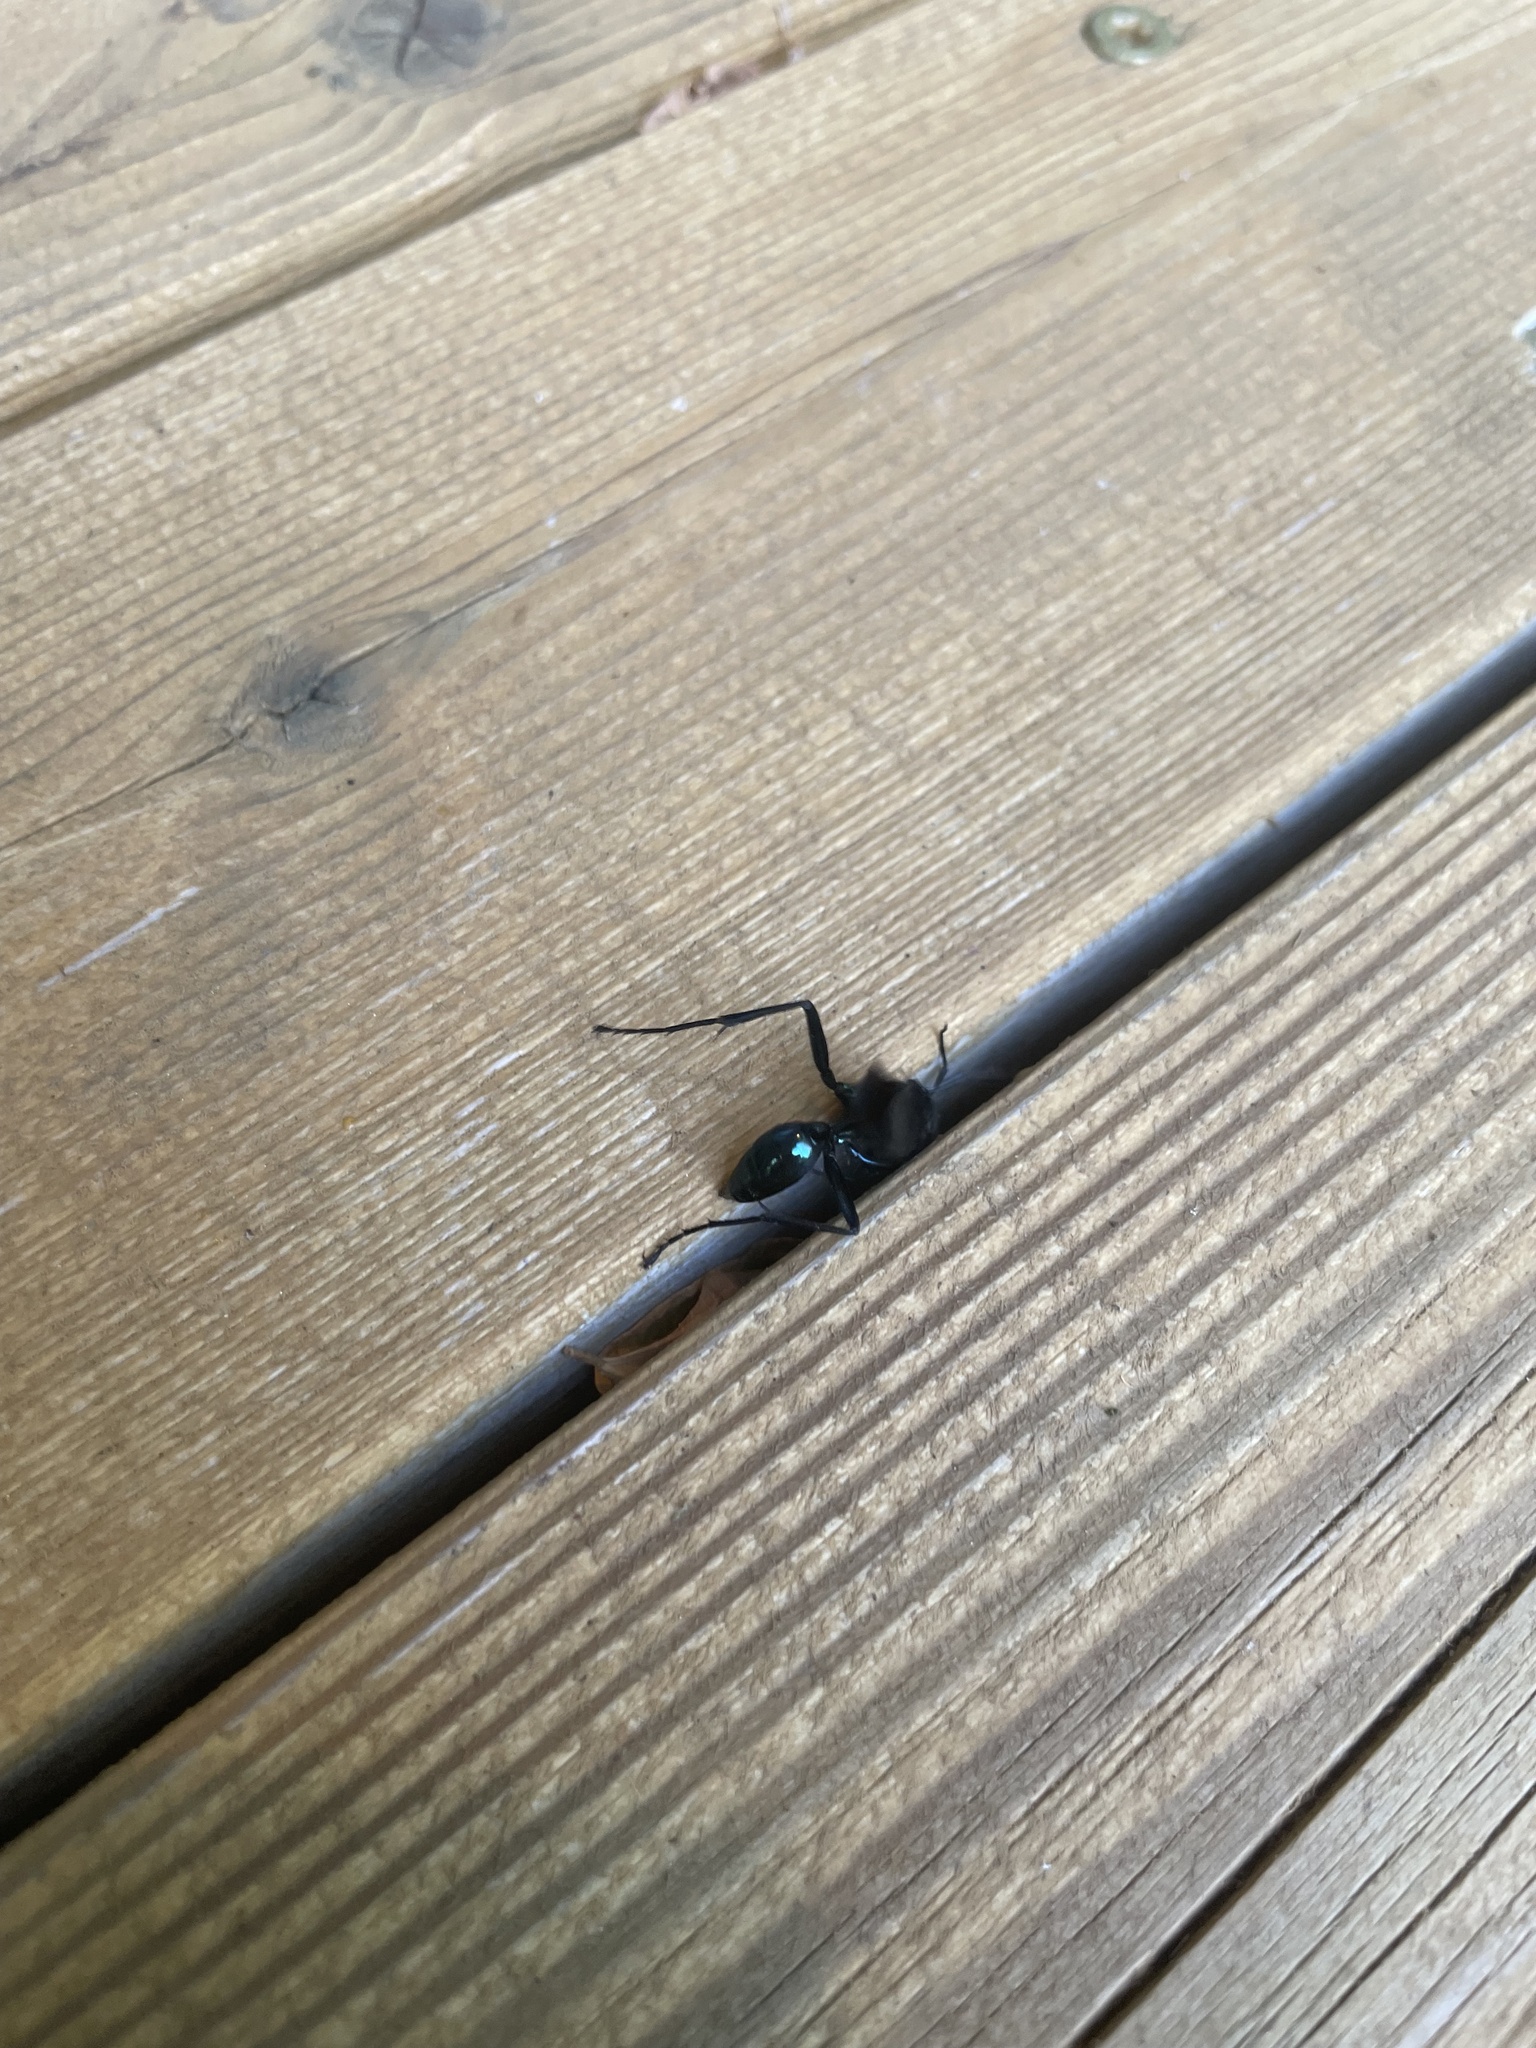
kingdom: Animalia
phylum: Arthropoda
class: Insecta
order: Hymenoptera
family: Sphecidae
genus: Chalybion
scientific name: Chalybion californicum
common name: Mud dauber
